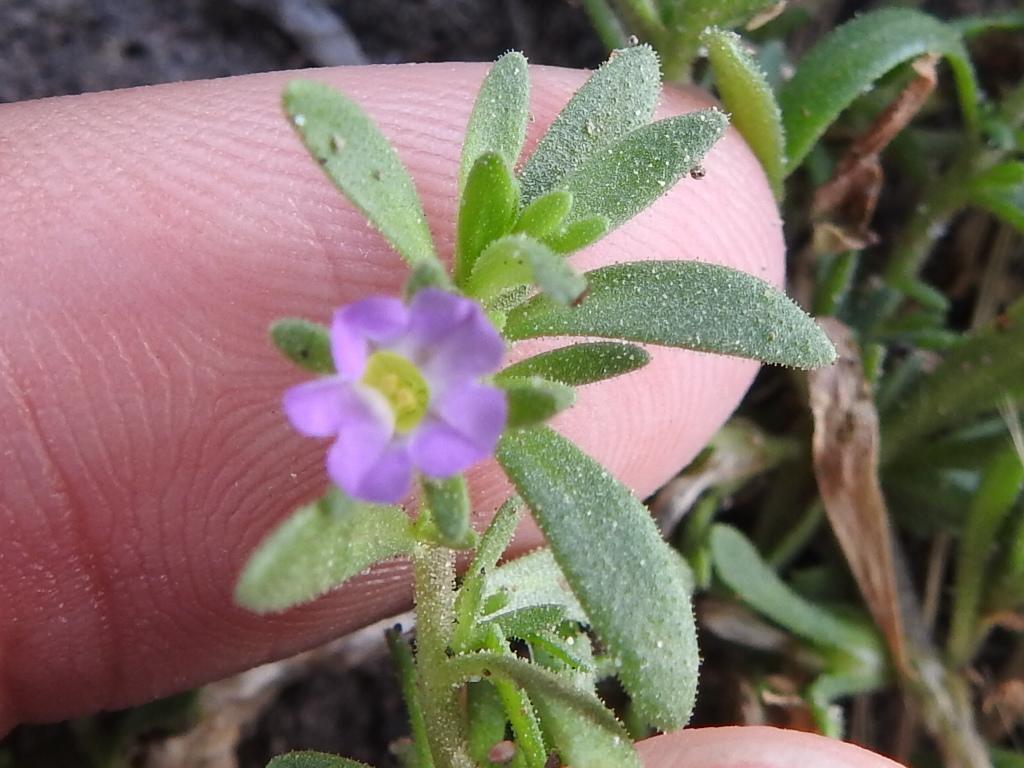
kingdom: Plantae
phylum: Tracheophyta
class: Magnoliopsida
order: Solanales
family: Solanaceae
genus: Calibrachoa
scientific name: Calibrachoa parviflora
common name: Seaside petunia
